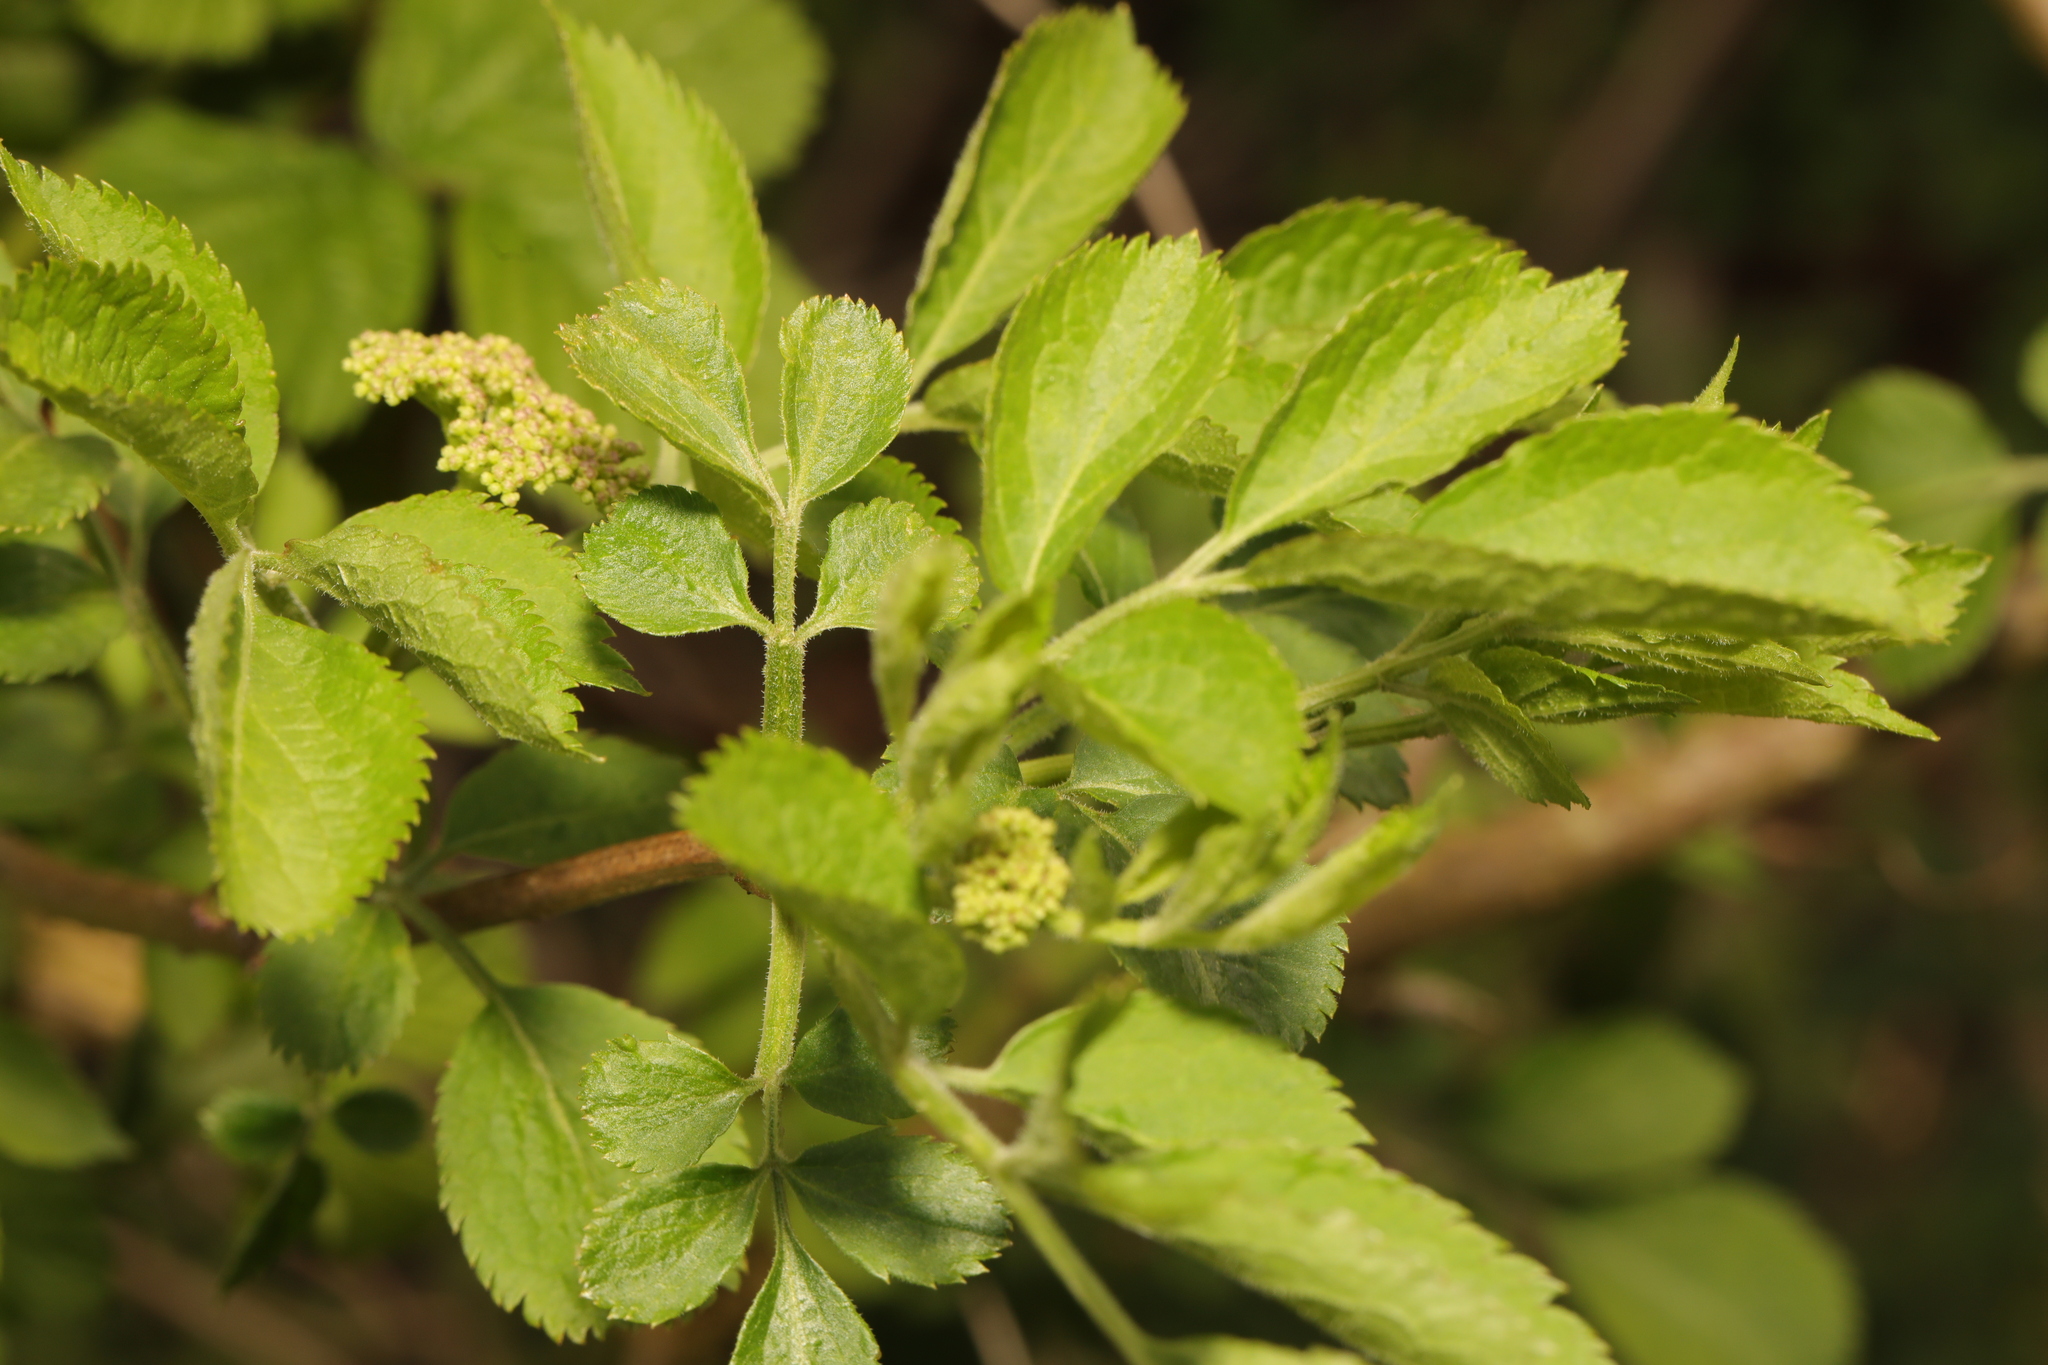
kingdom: Plantae
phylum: Tracheophyta
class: Magnoliopsida
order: Dipsacales
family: Viburnaceae
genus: Sambucus
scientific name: Sambucus nigra
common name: Elder
